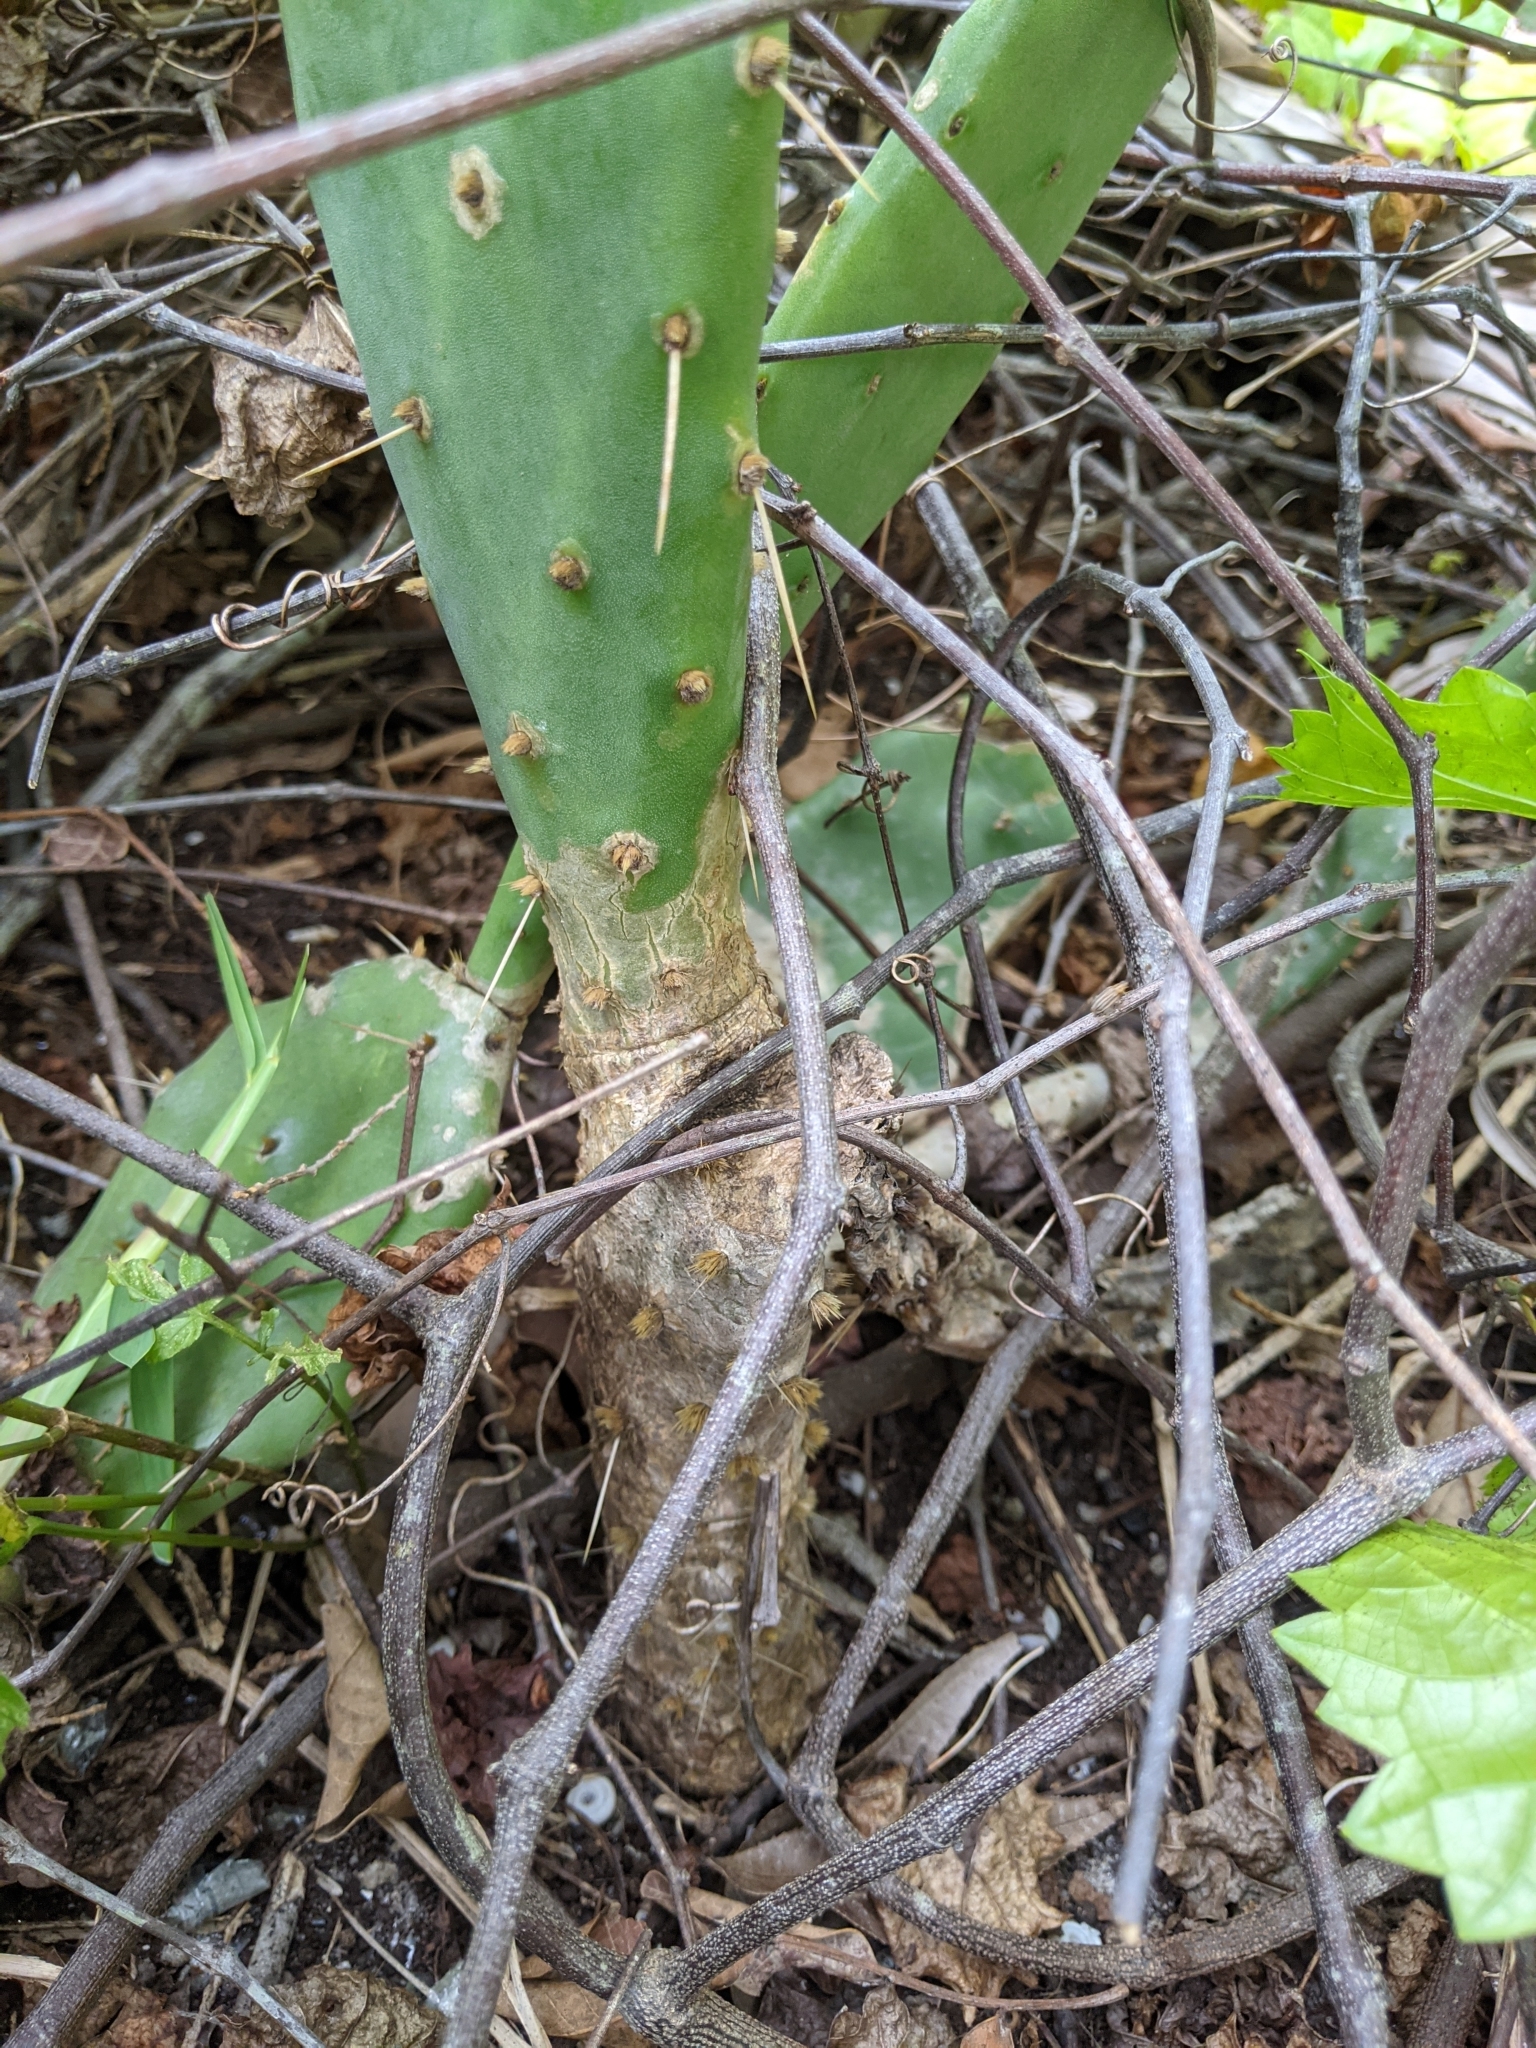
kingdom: Plantae
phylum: Tracheophyta
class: Magnoliopsida
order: Caryophyllales
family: Cactaceae
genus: Opuntia
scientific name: Opuntia austrina
